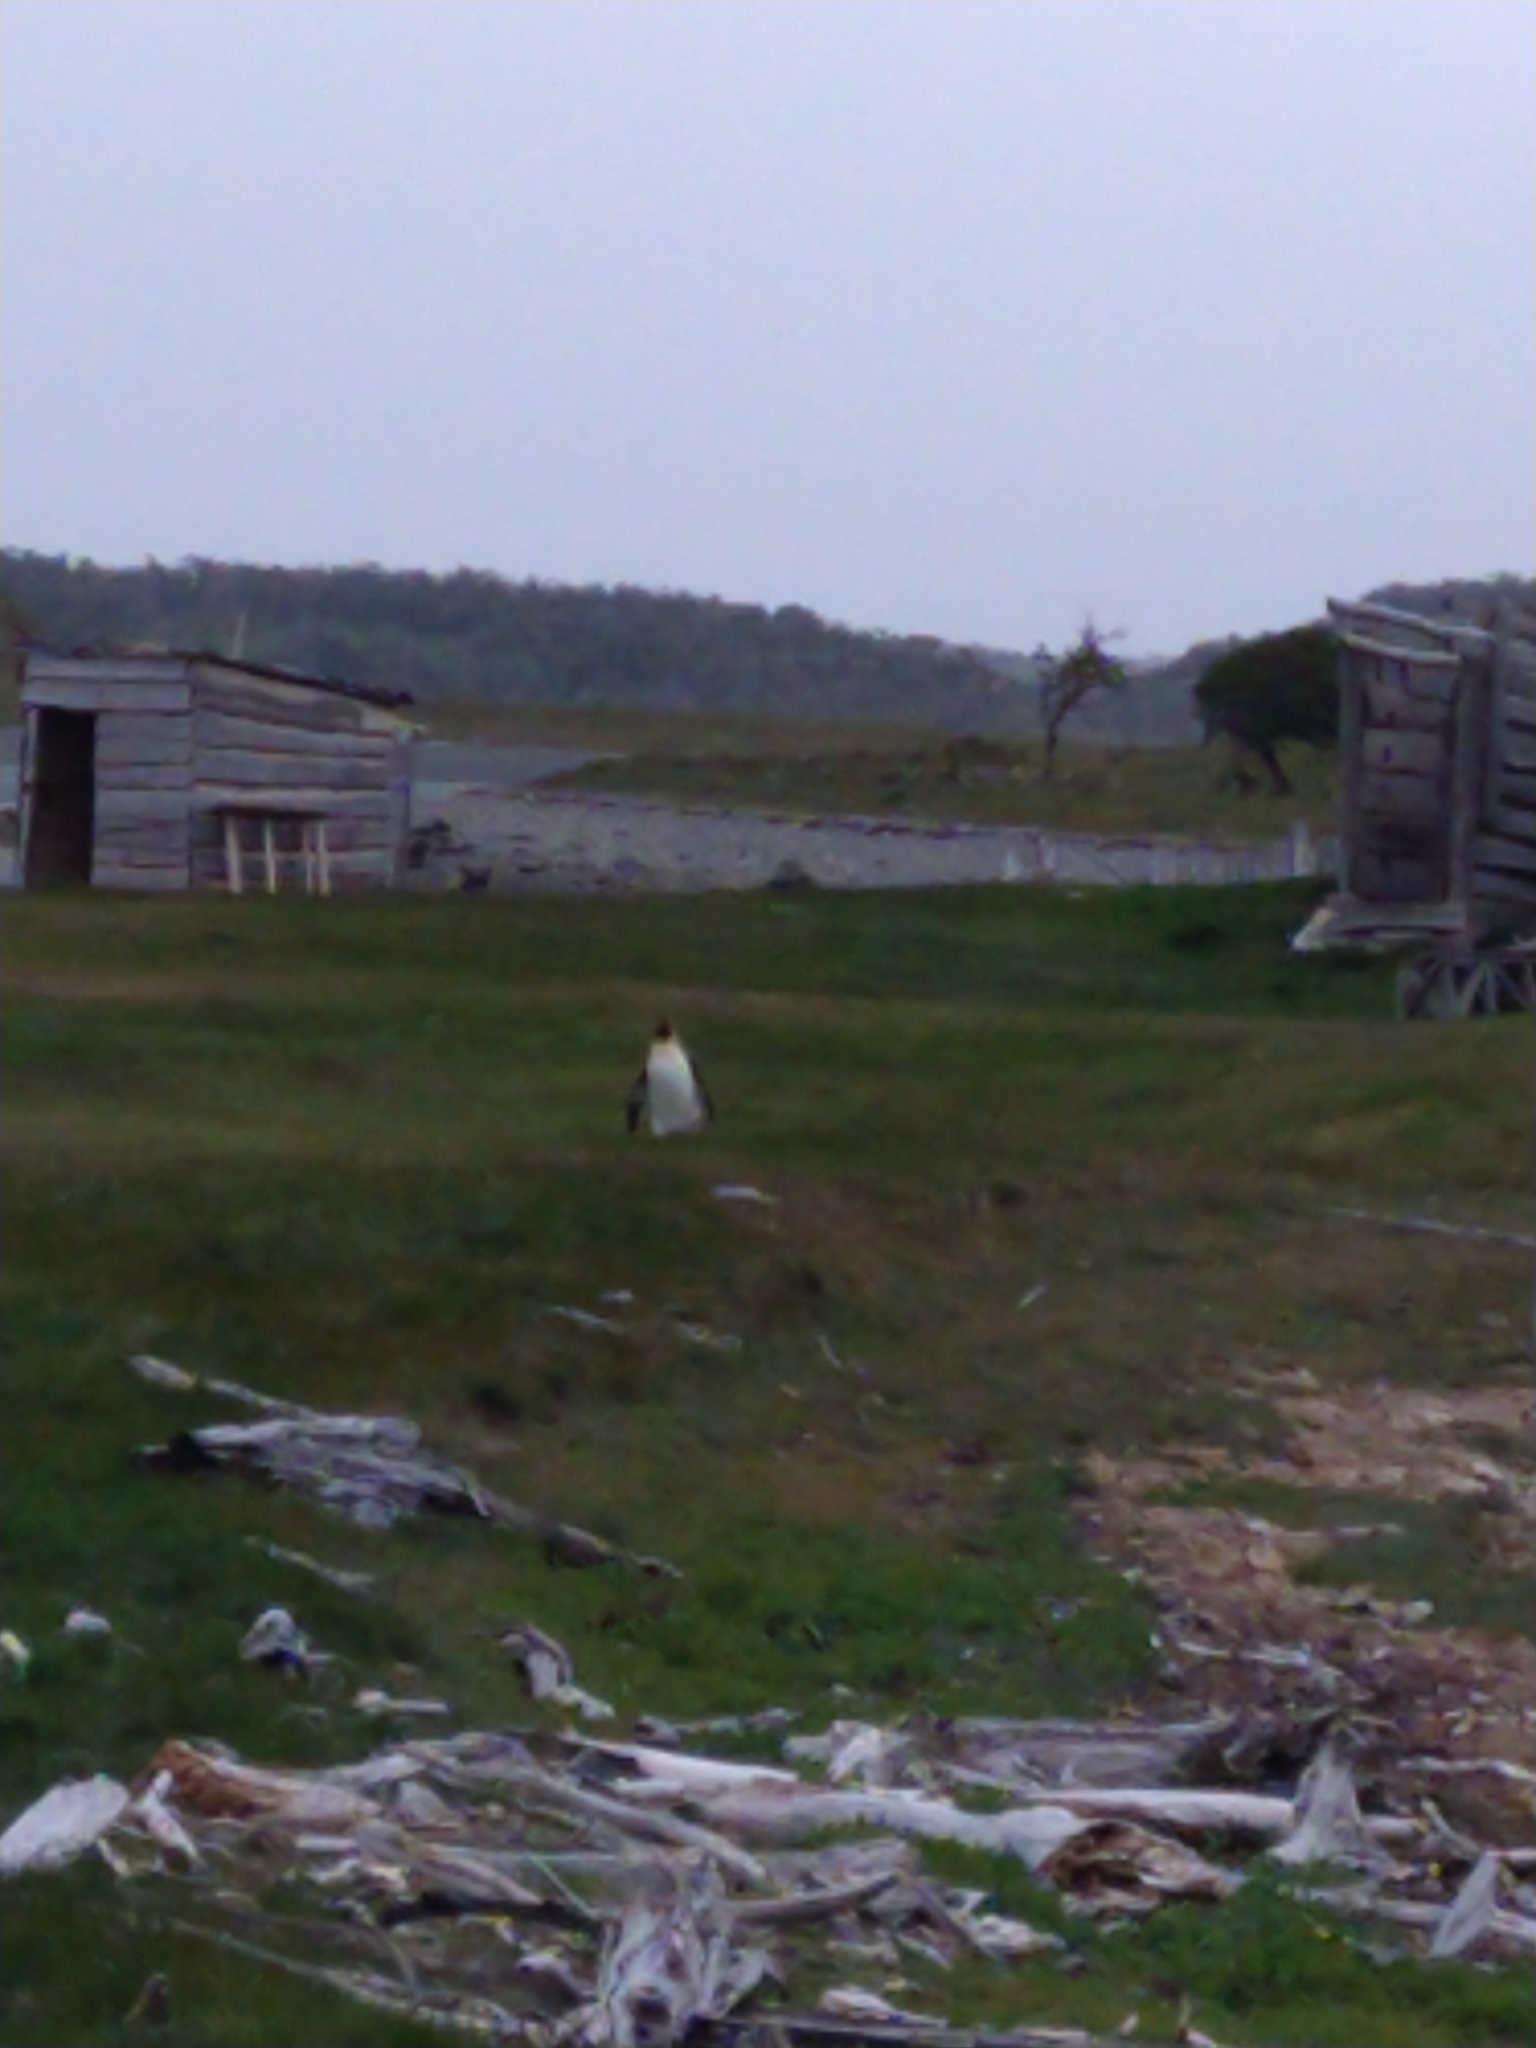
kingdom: Animalia
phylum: Chordata
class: Aves
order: Sphenisciformes
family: Spheniscidae
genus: Aptenodytes
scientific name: Aptenodytes patagonicus
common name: King penguin
